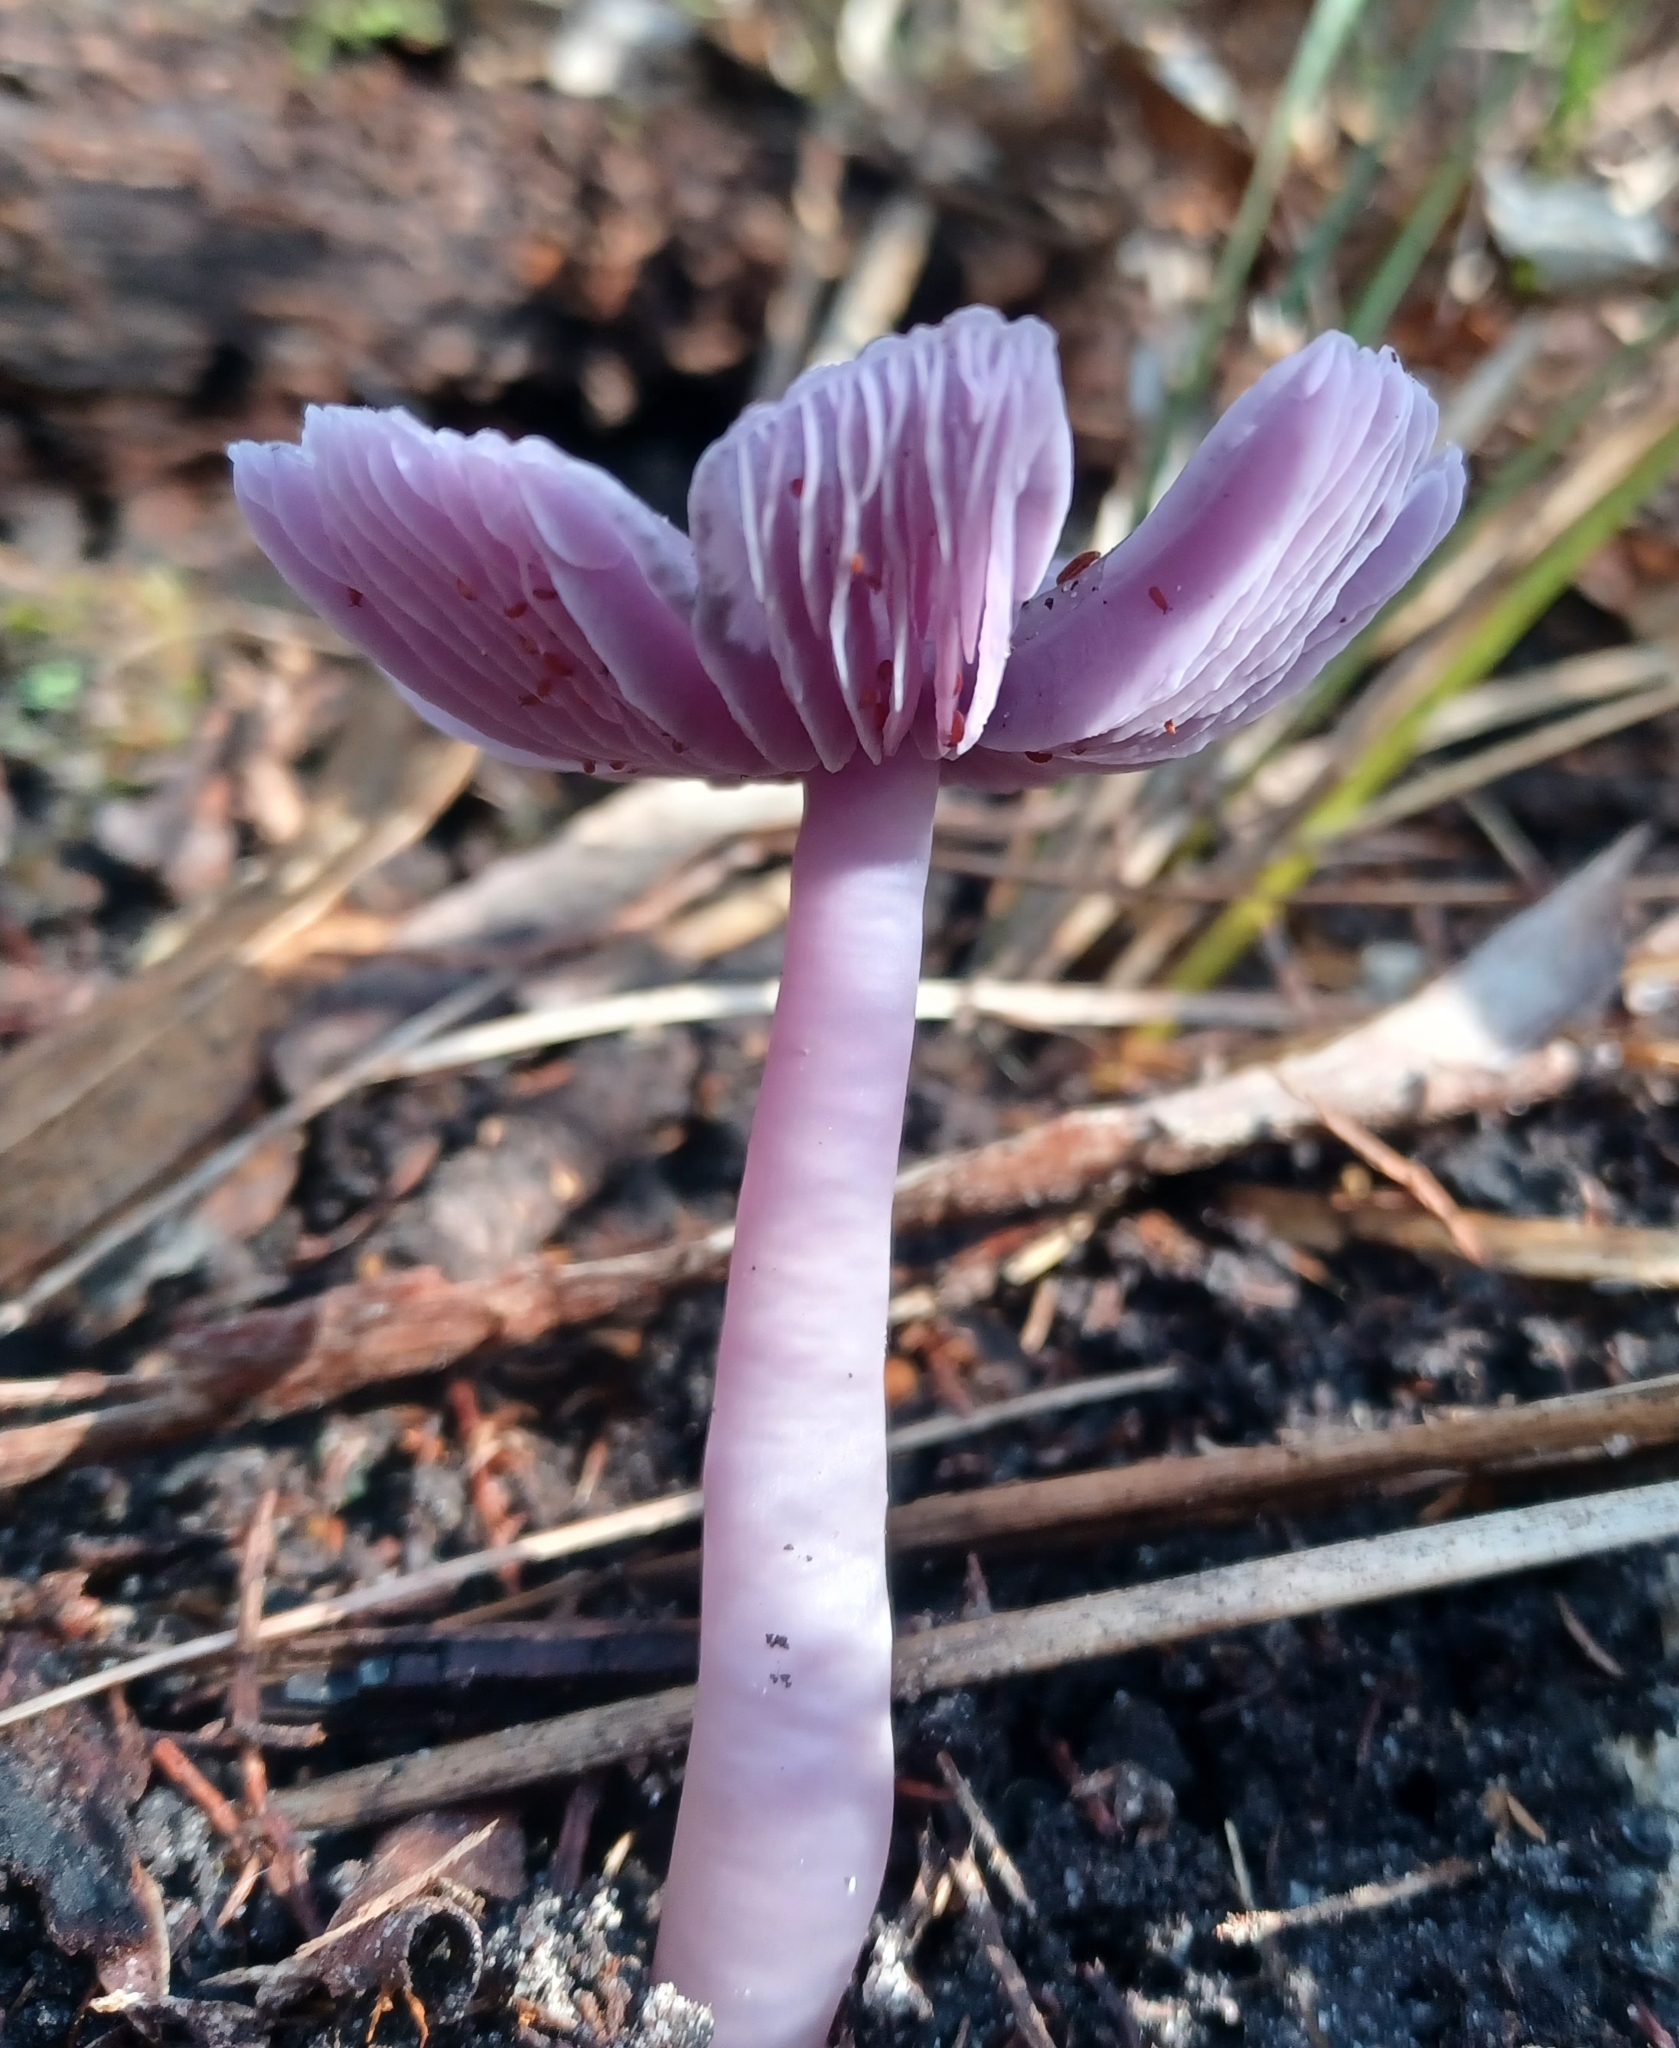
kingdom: Fungi
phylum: Basidiomycota
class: Agaricomycetes
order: Agaricales
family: Hygrophoraceae
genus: Porpolomopsis
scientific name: Porpolomopsis lewelliniae
